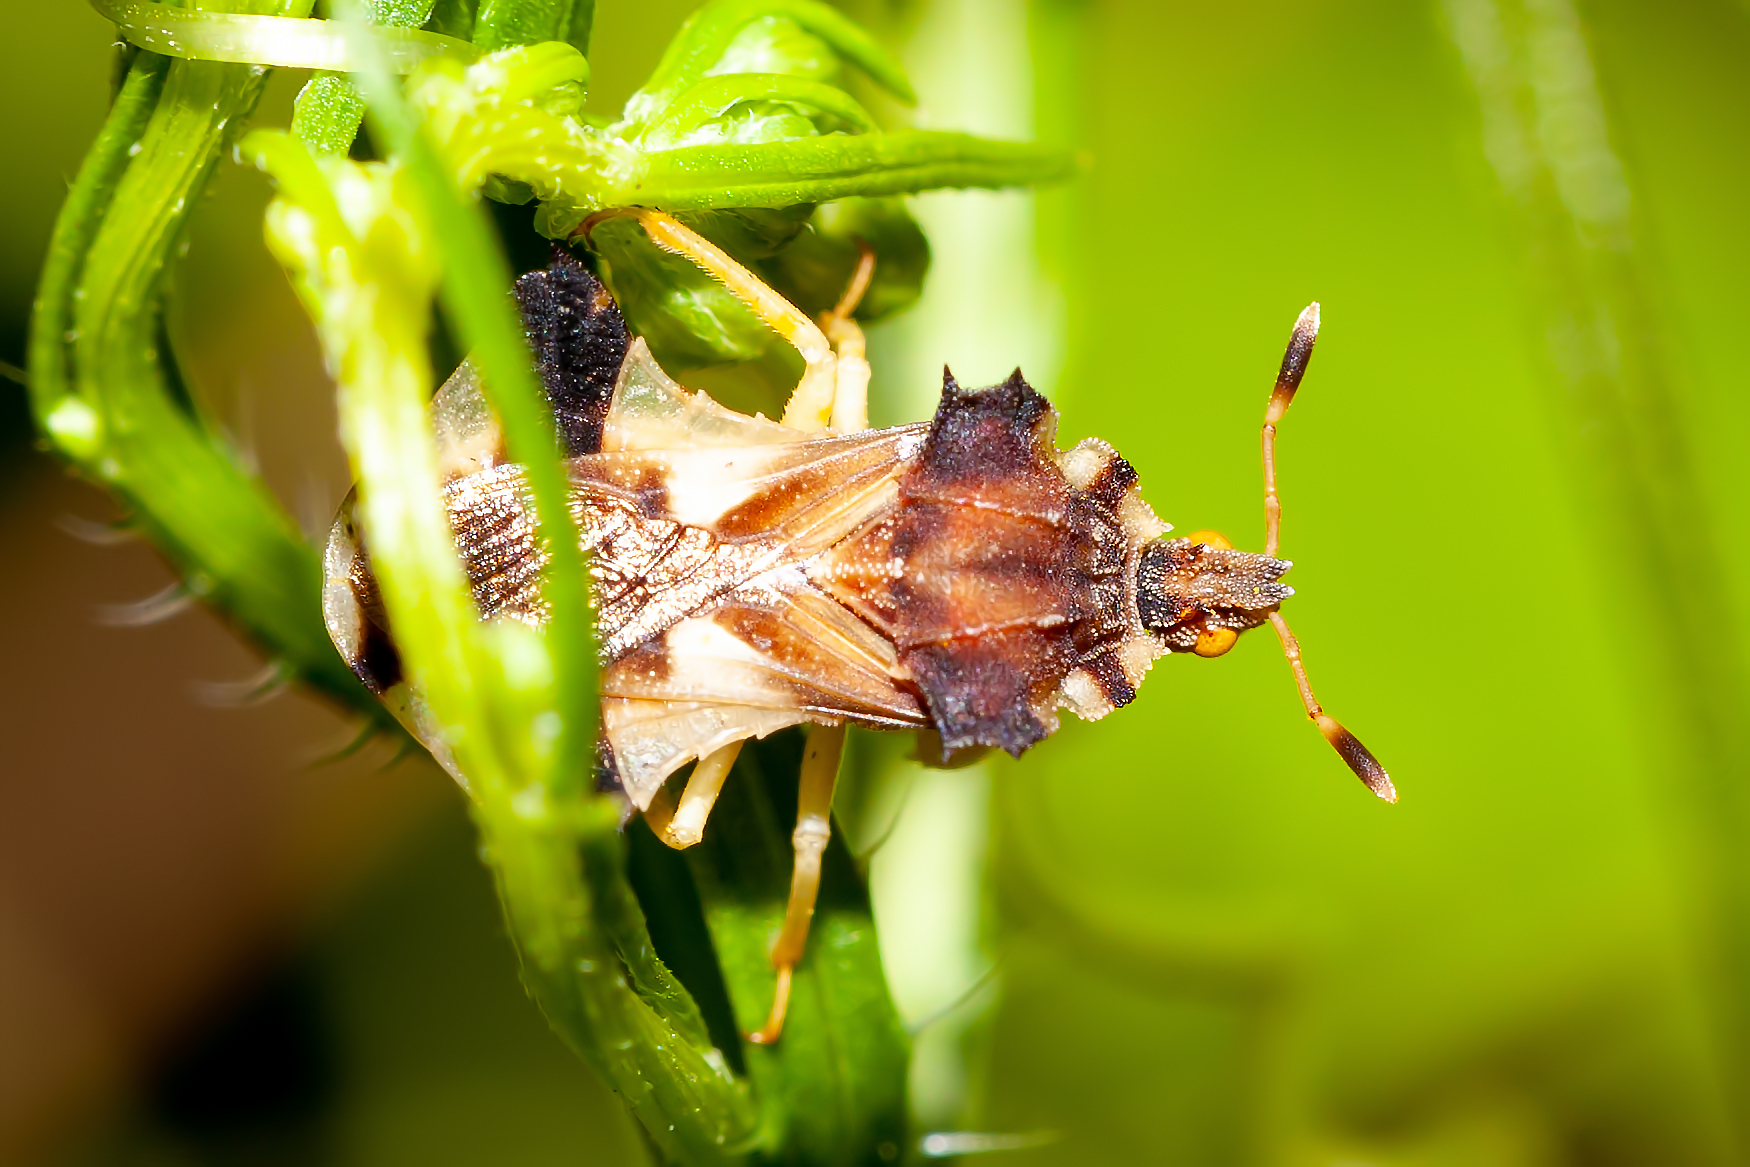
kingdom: Animalia
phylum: Arthropoda
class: Insecta
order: Hemiptera
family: Reduviidae
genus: Phymata
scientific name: Phymata
